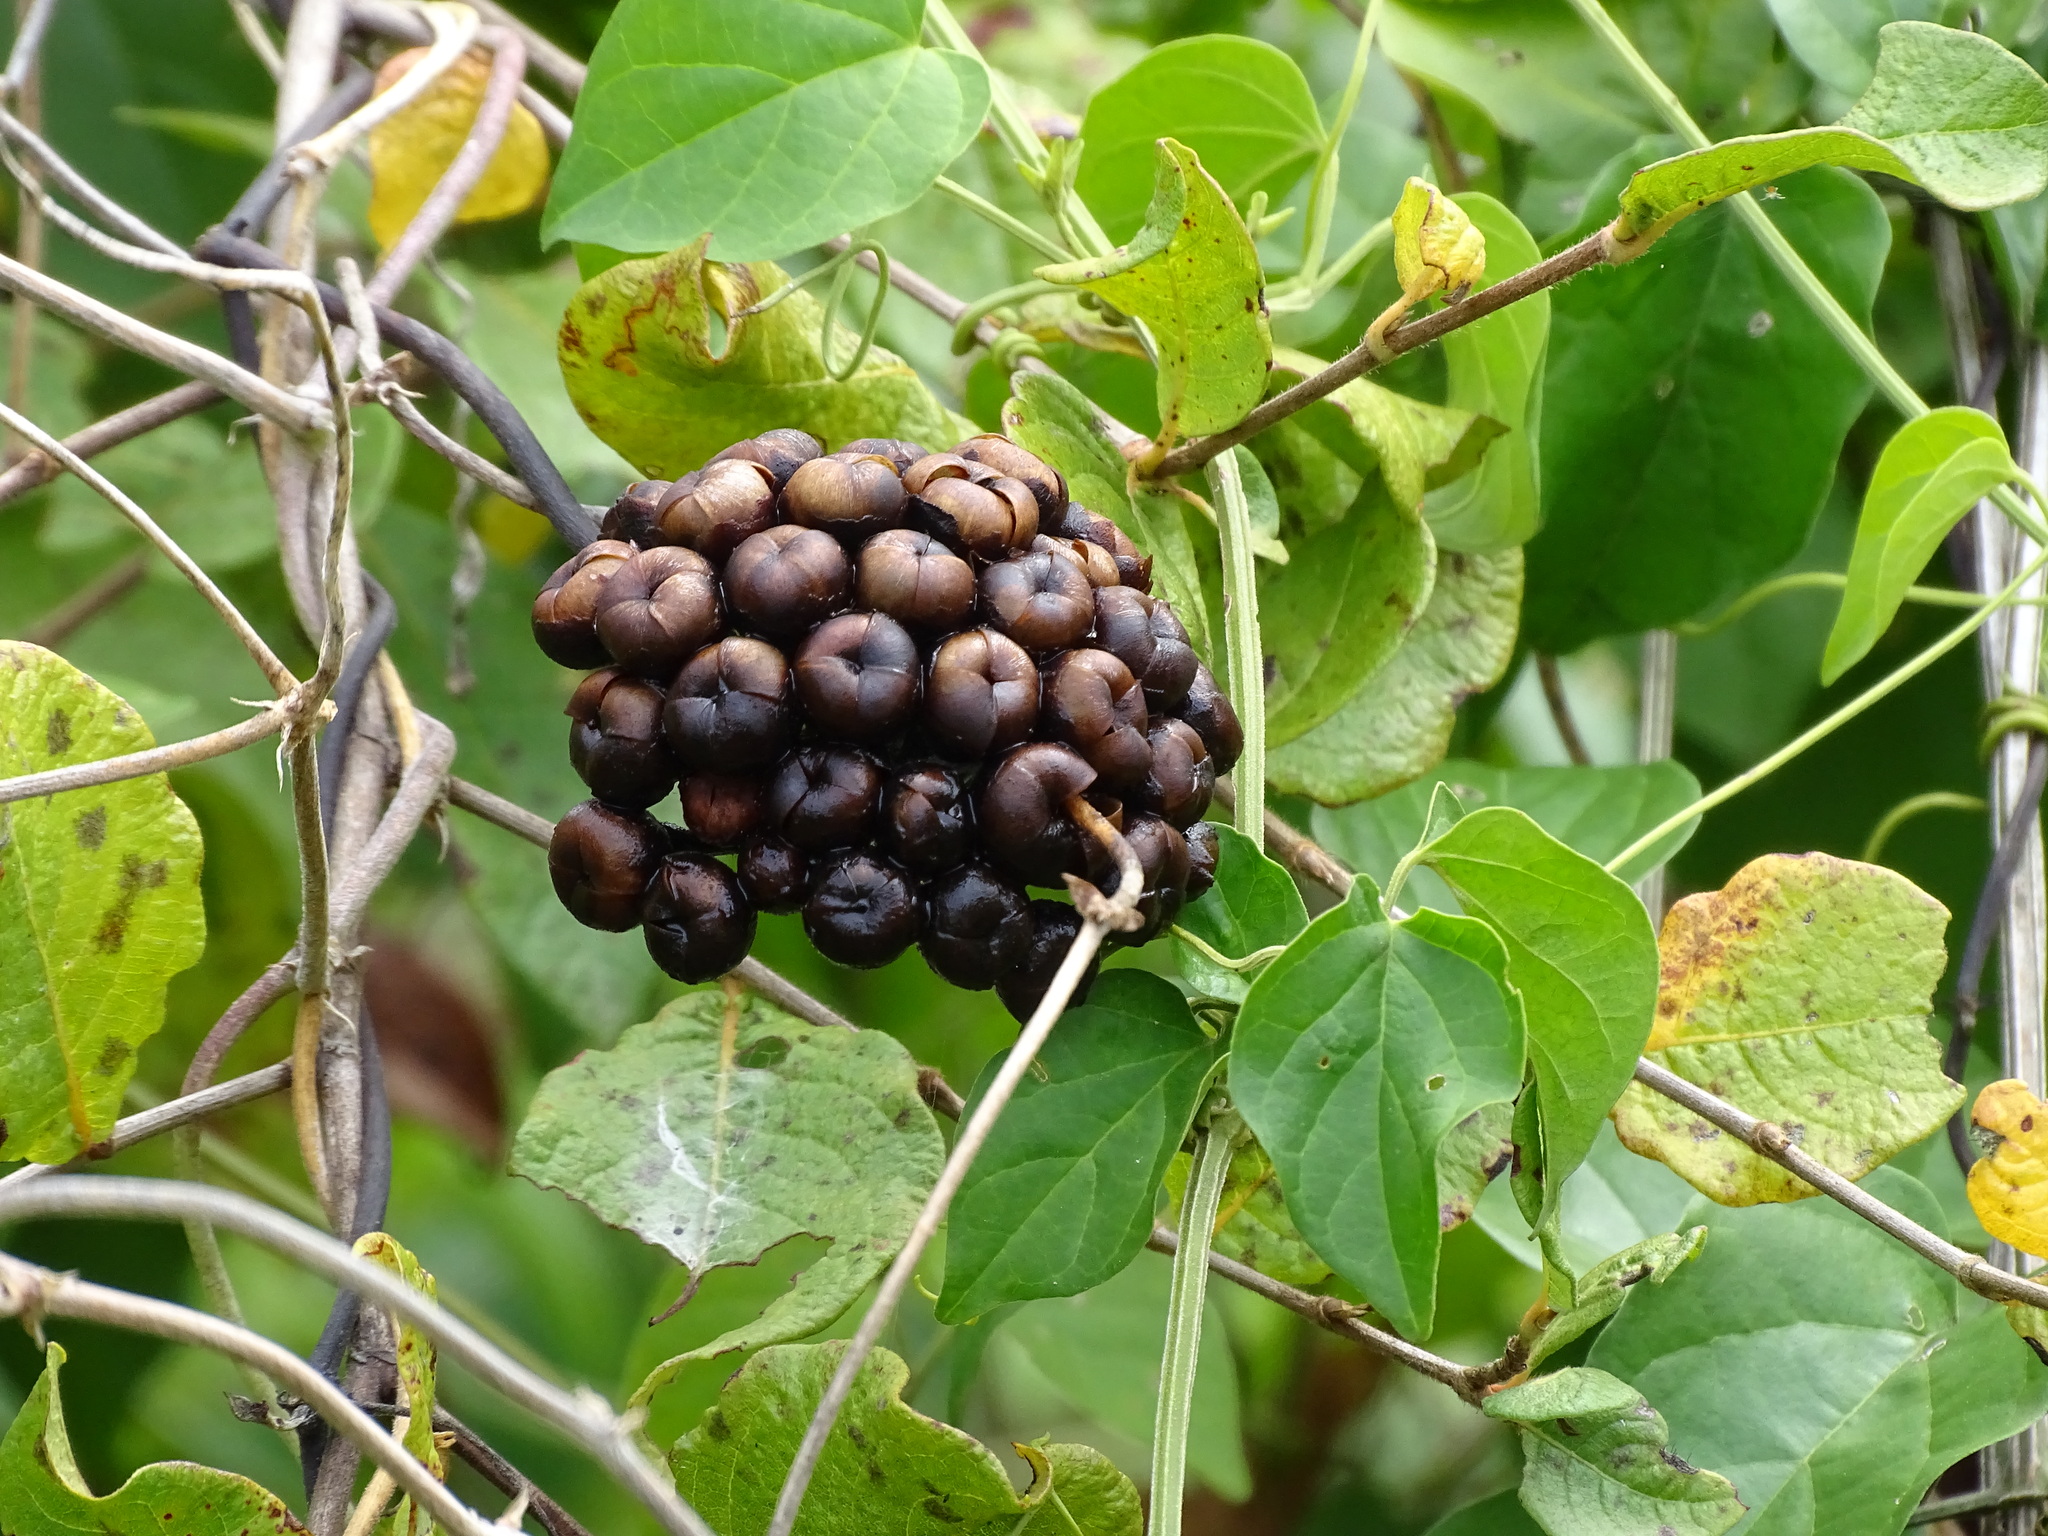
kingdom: Plantae
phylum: Tracheophyta
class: Magnoliopsida
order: Solanales
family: Convolvulaceae
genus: Camonea
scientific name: Camonea umbellata
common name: Hogvine
